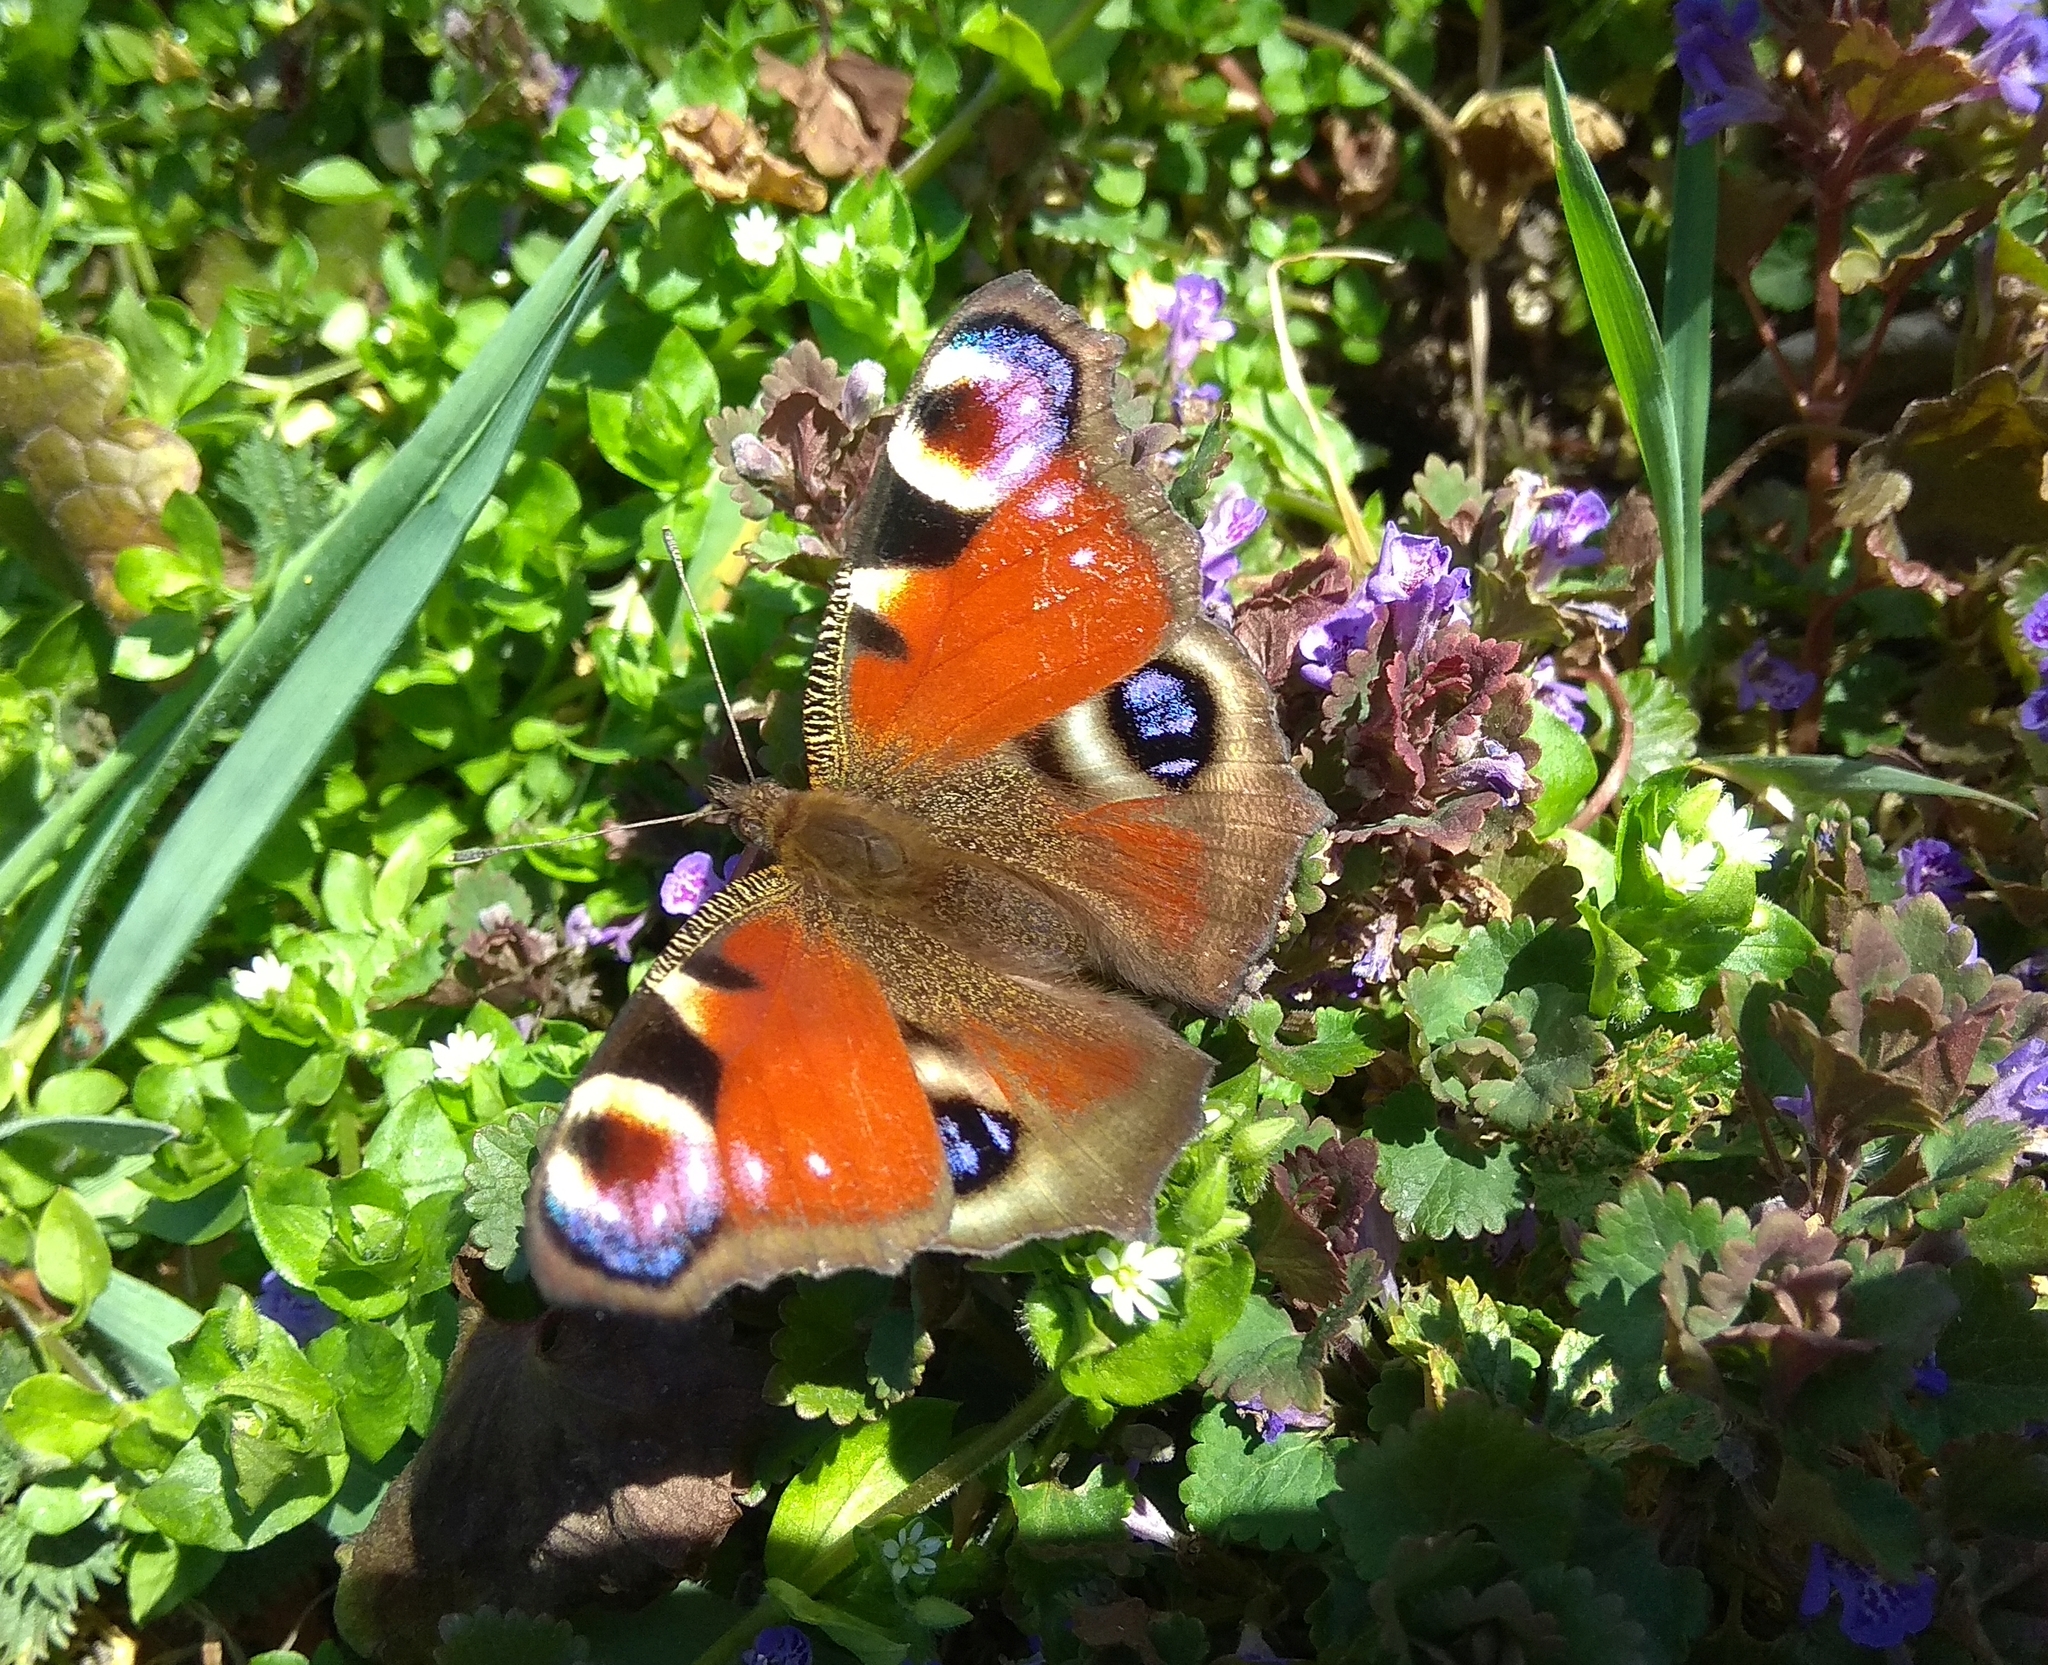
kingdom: Animalia
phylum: Arthropoda
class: Insecta
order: Lepidoptera
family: Nymphalidae
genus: Aglais
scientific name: Aglais io
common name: Peacock
